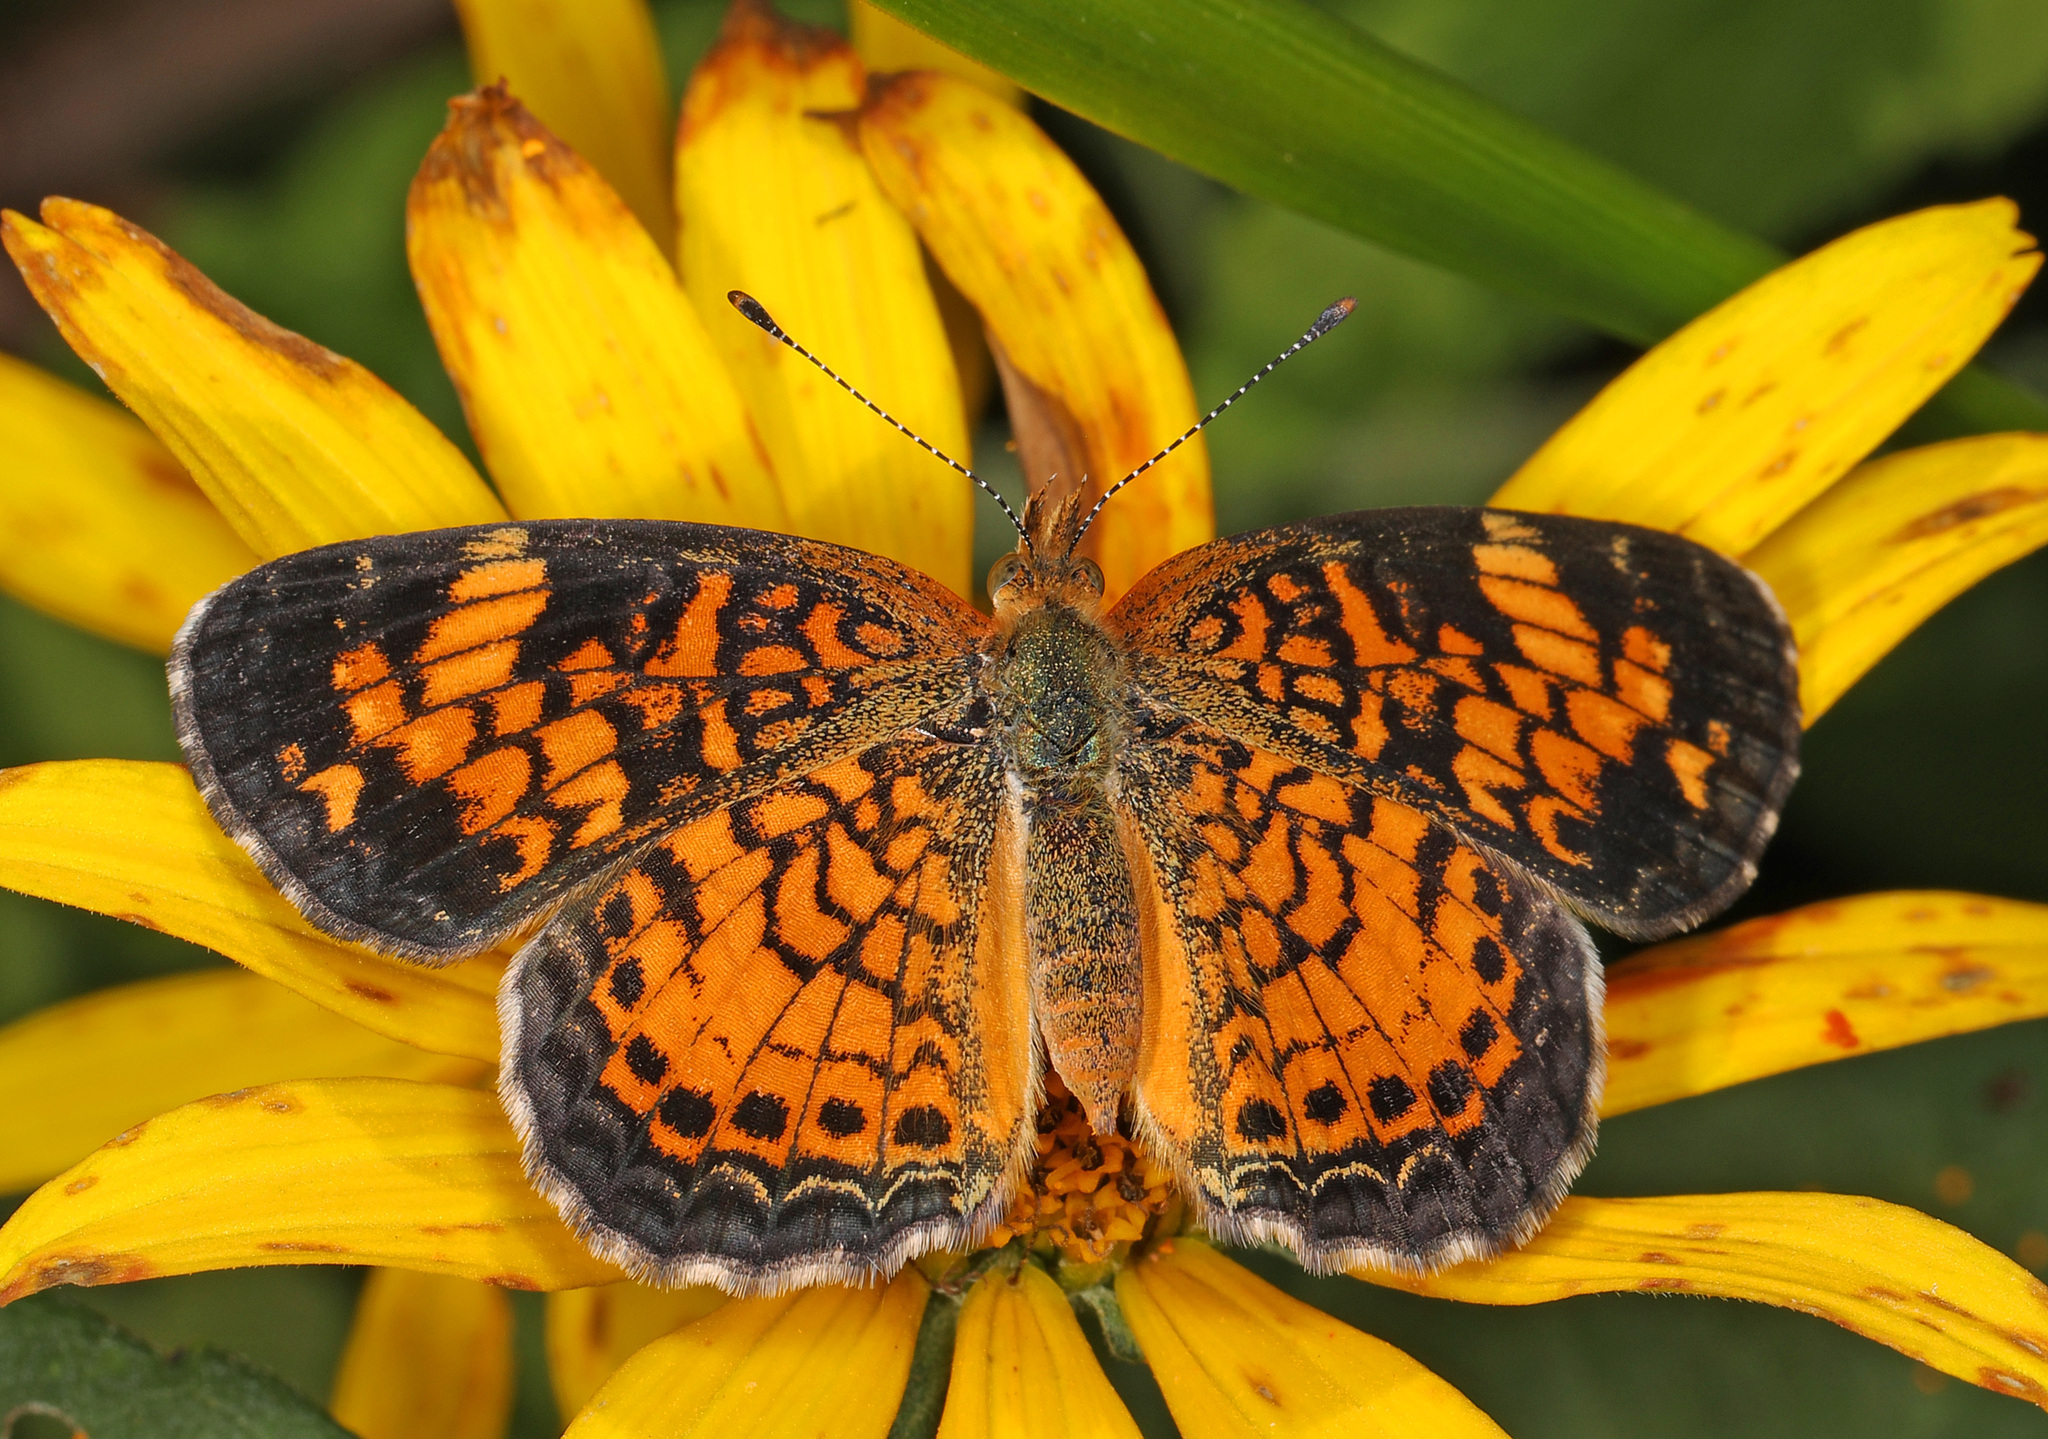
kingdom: Animalia
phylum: Arthropoda
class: Insecta
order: Lepidoptera
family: Nymphalidae
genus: Phyciodes
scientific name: Phyciodes tharos
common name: Pearl crescent
